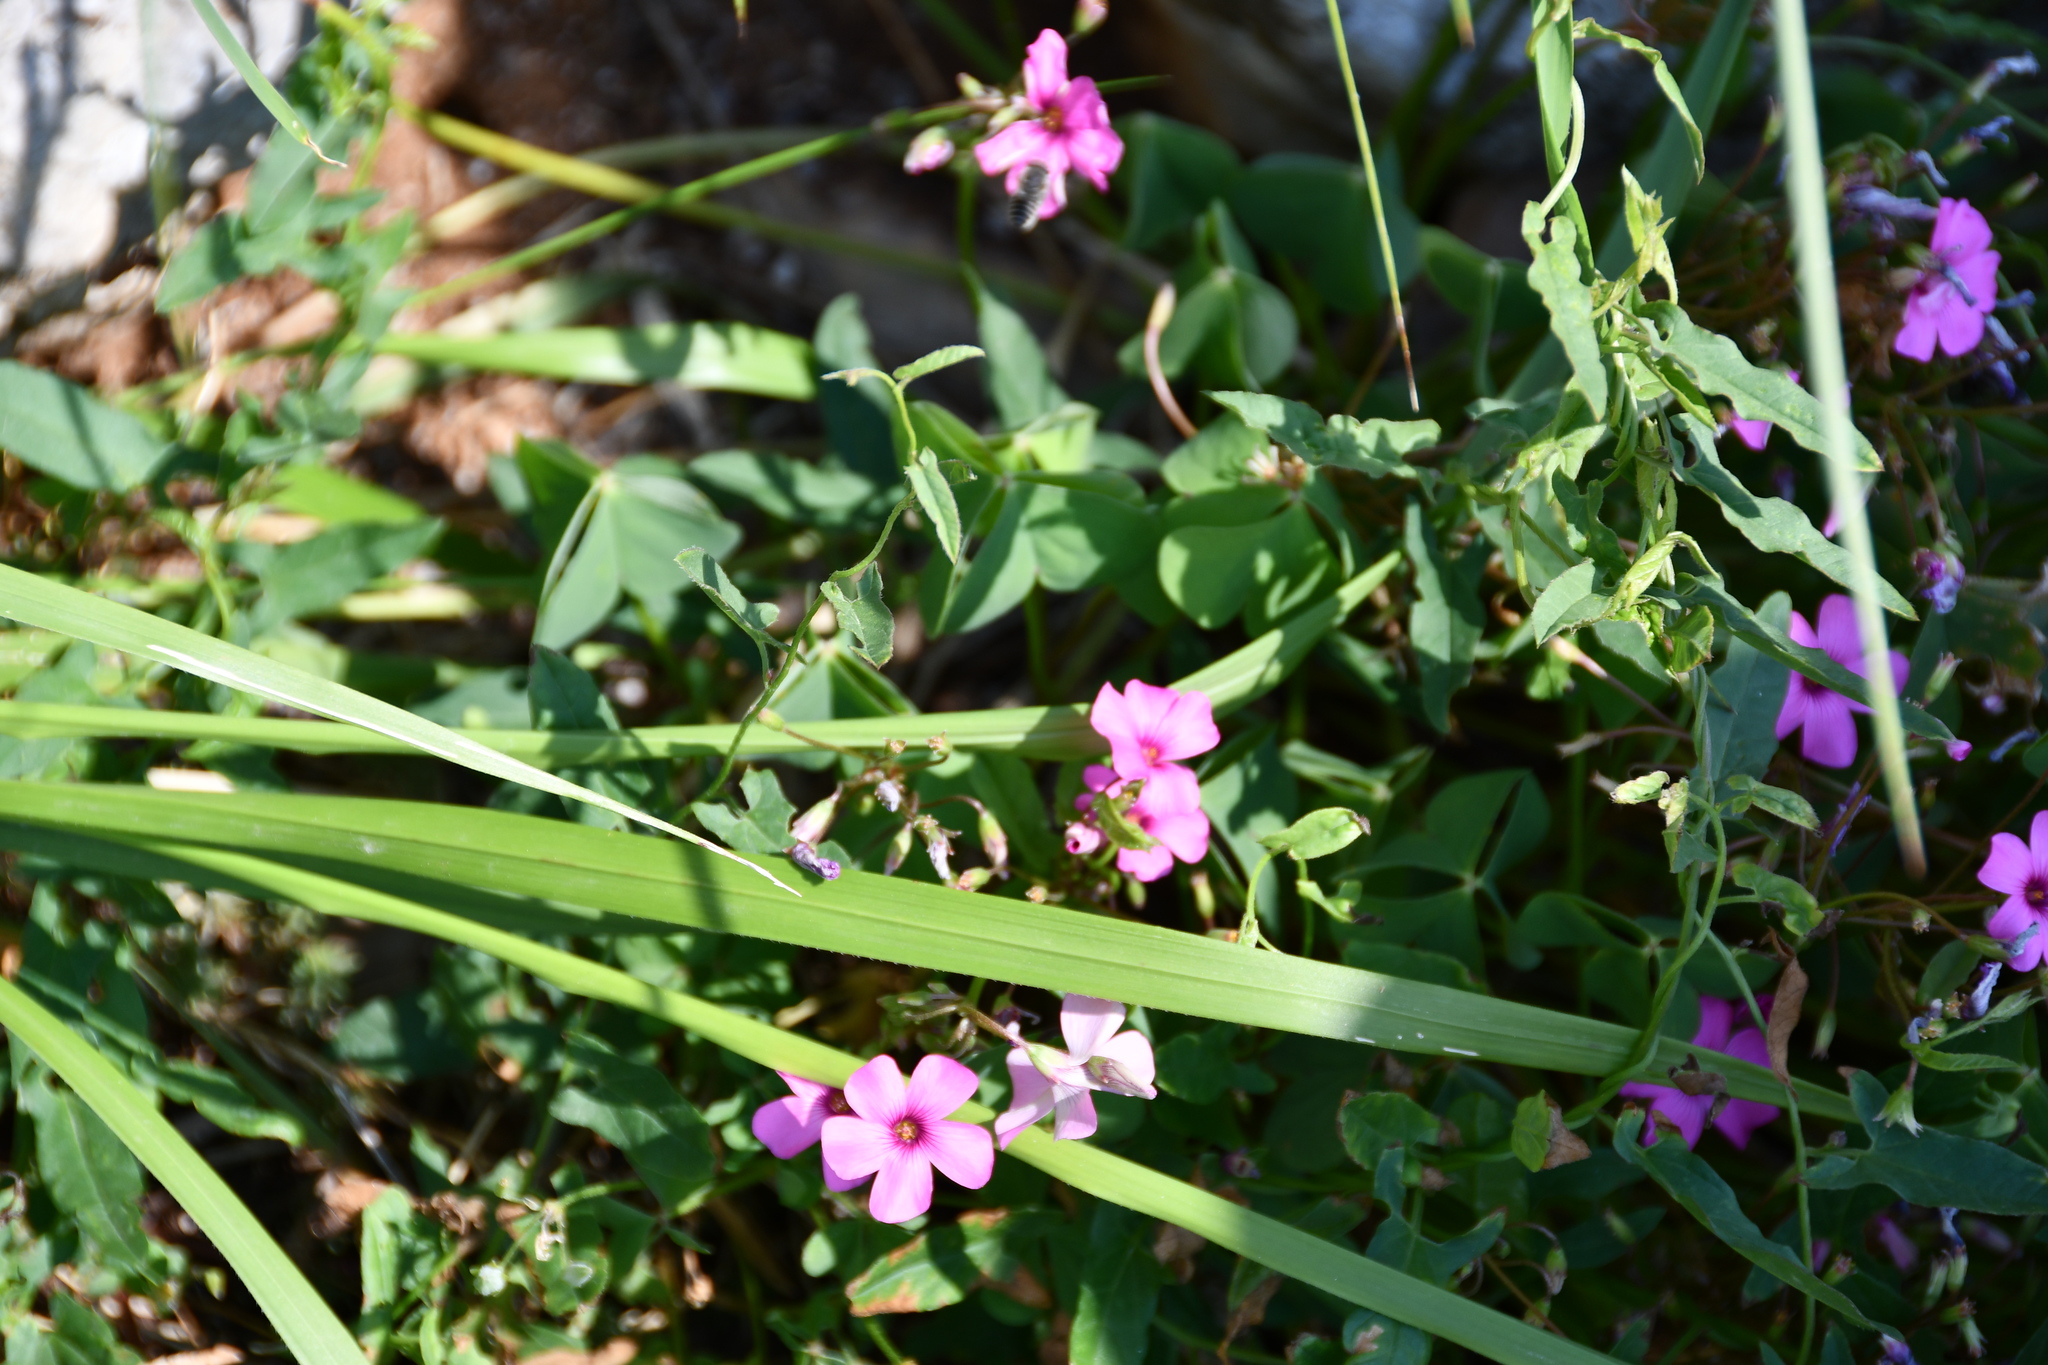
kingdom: Plantae
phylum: Tracheophyta
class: Magnoliopsida
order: Oxalidales
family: Oxalidaceae
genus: Oxalis
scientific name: Oxalis articulata
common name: Pink-sorrel
